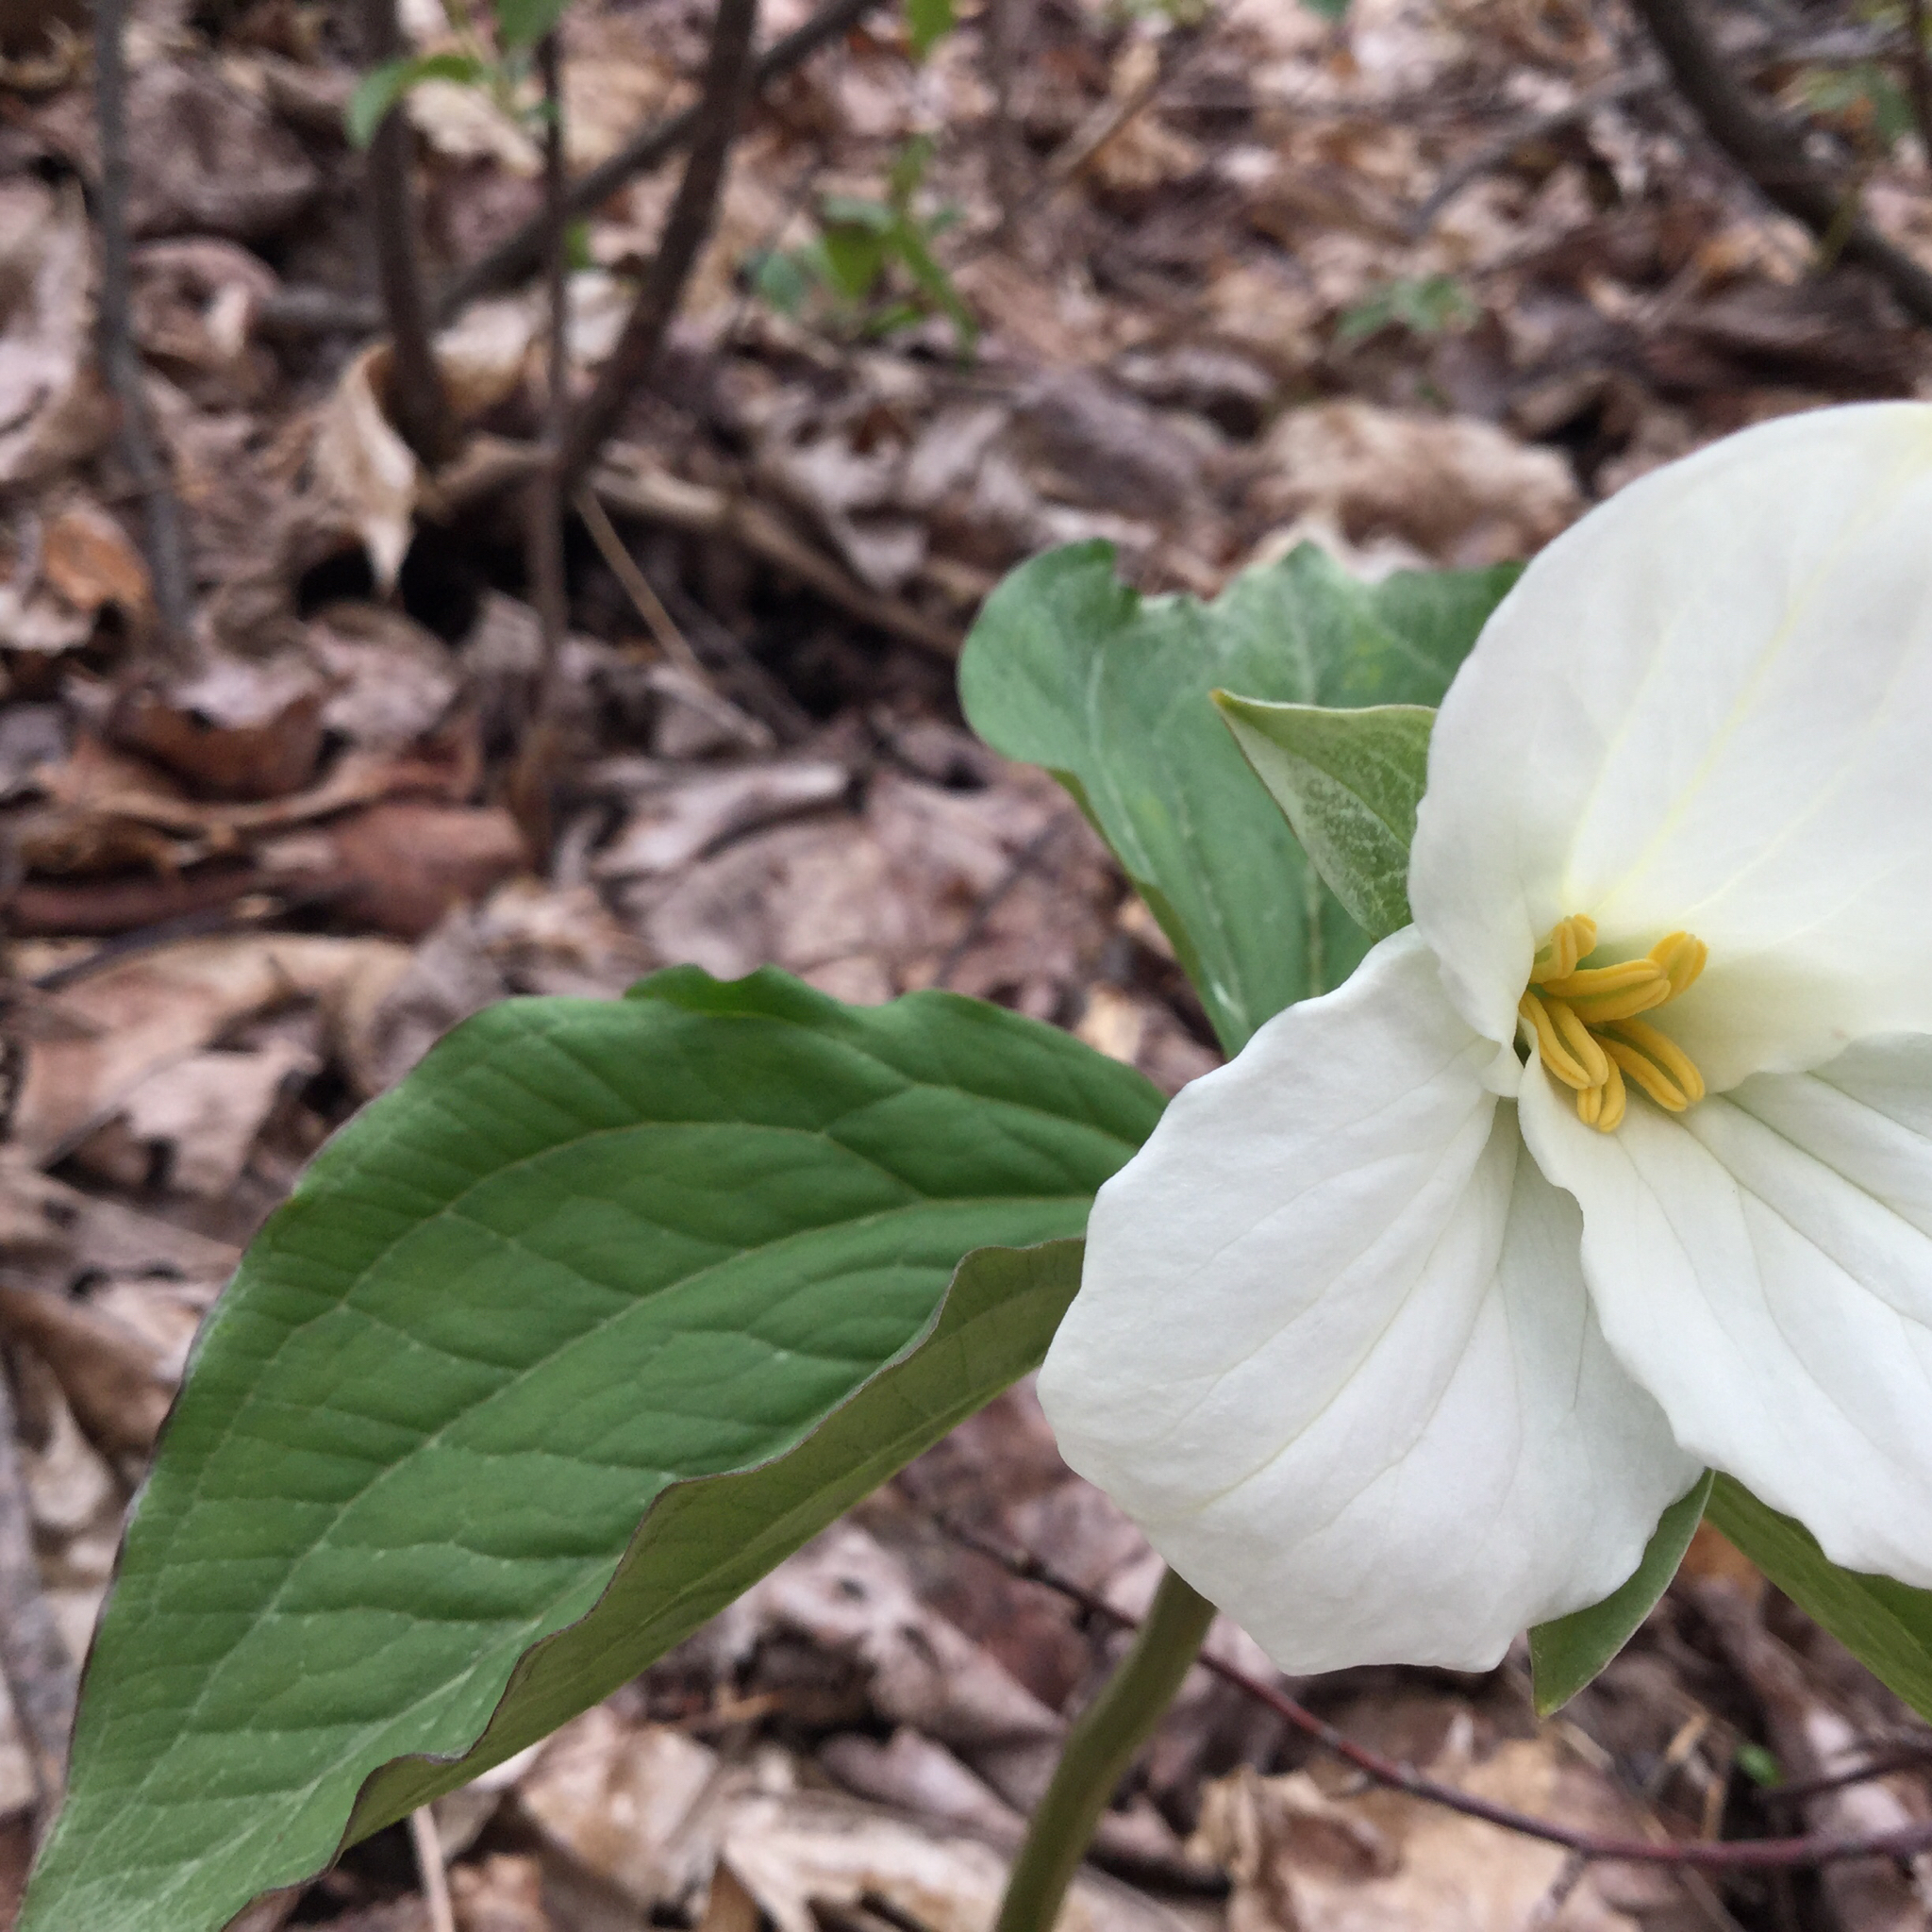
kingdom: Plantae
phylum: Tracheophyta
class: Liliopsida
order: Liliales
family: Melanthiaceae
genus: Trillium
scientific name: Trillium grandiflorum
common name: Great white trillium
